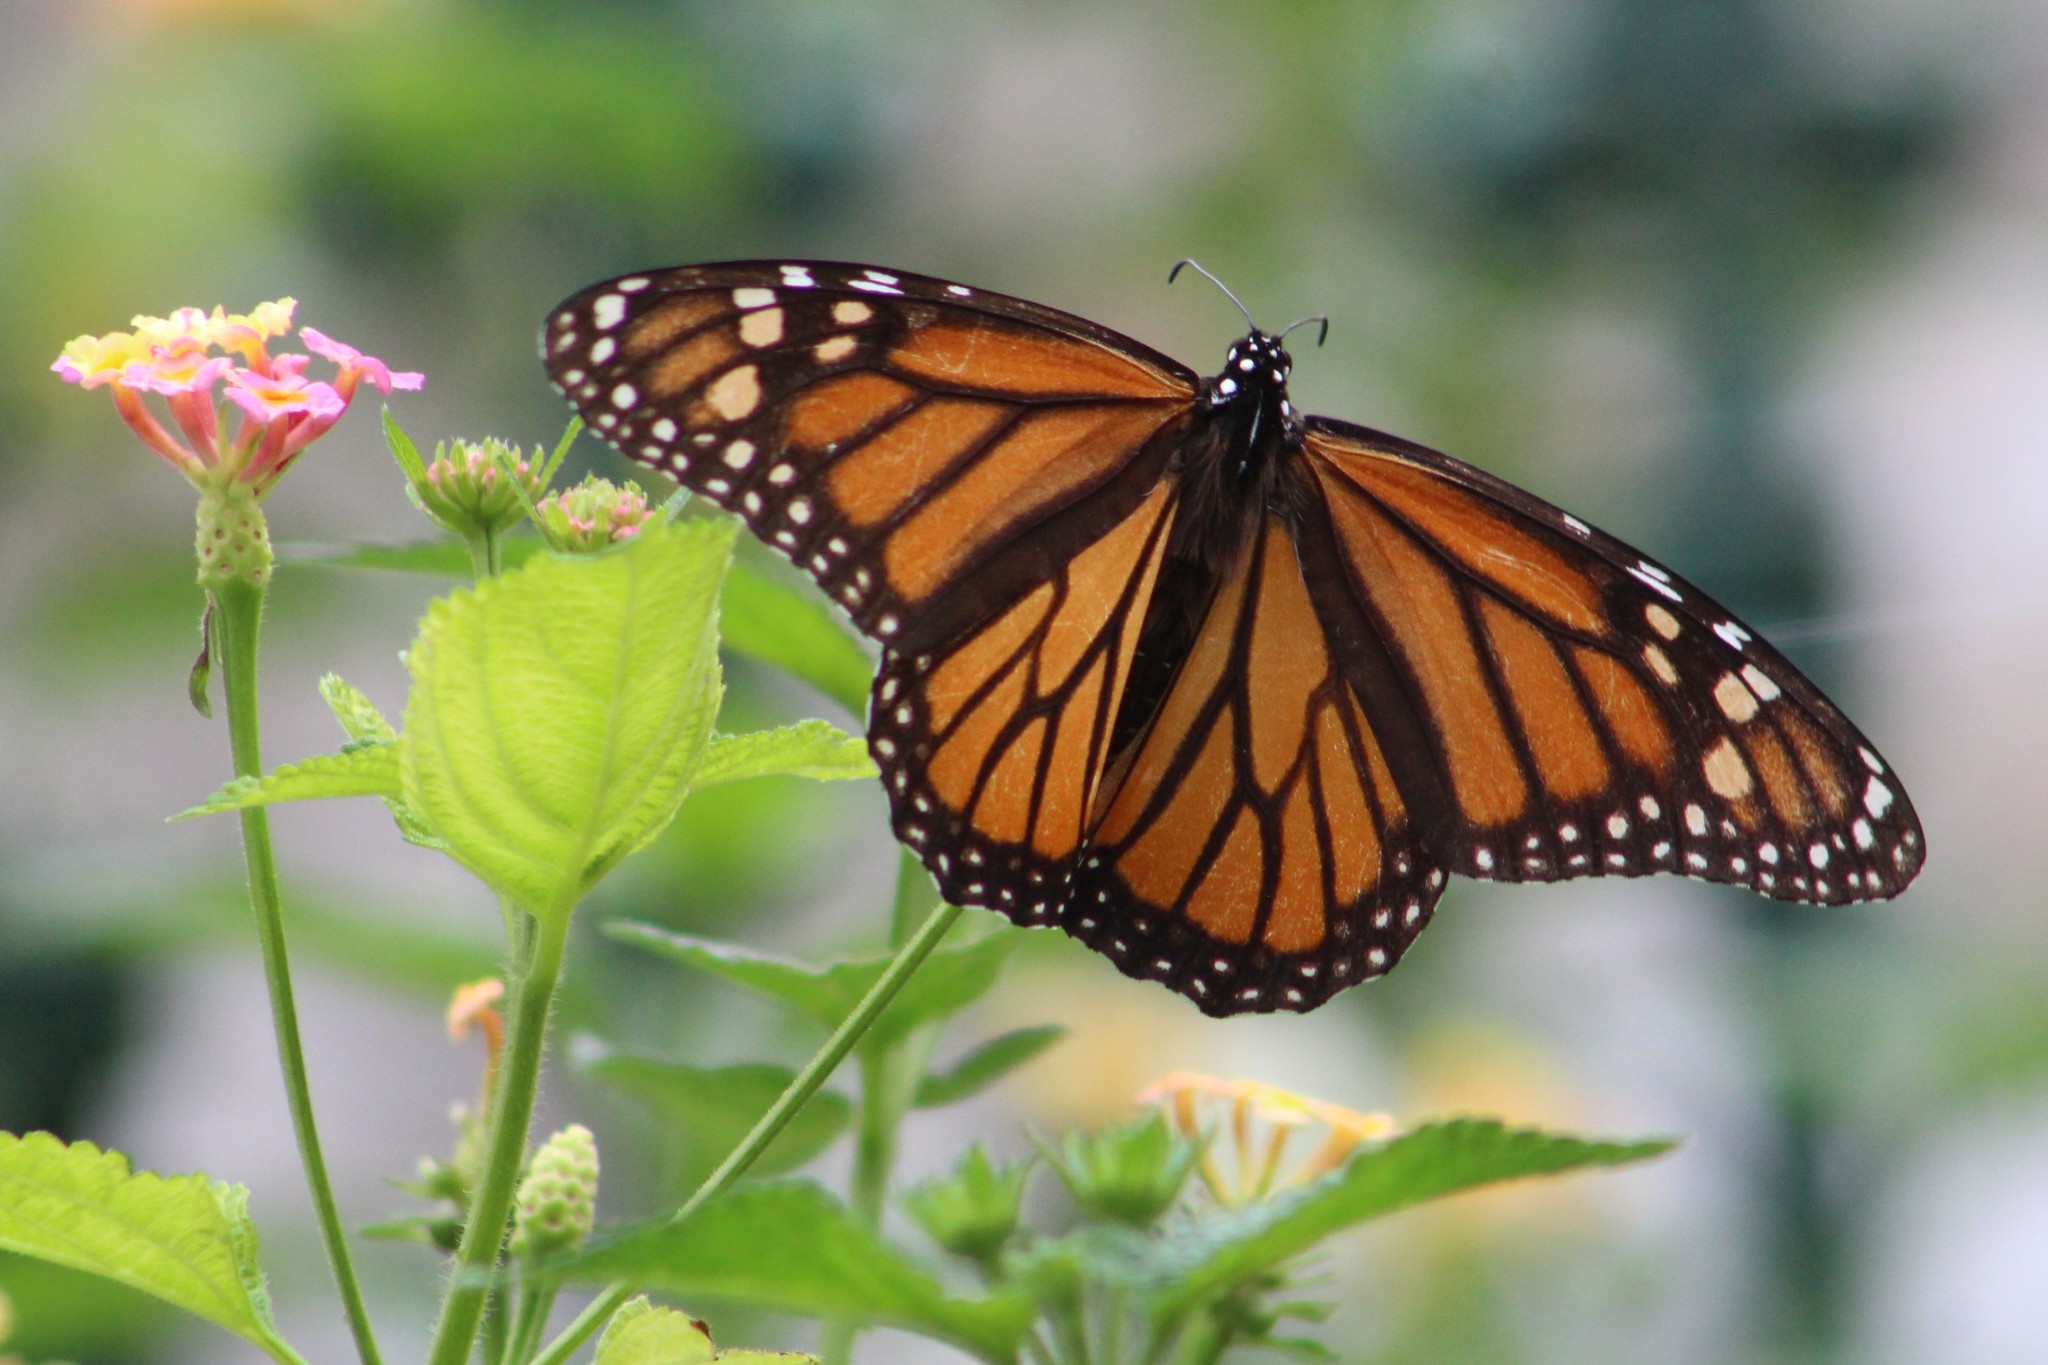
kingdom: Animalia
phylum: Arthropoda
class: Insecta
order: Lepidoptera
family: Nymphalidae
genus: Danaus
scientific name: Danaus plexippus
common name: Monarch
